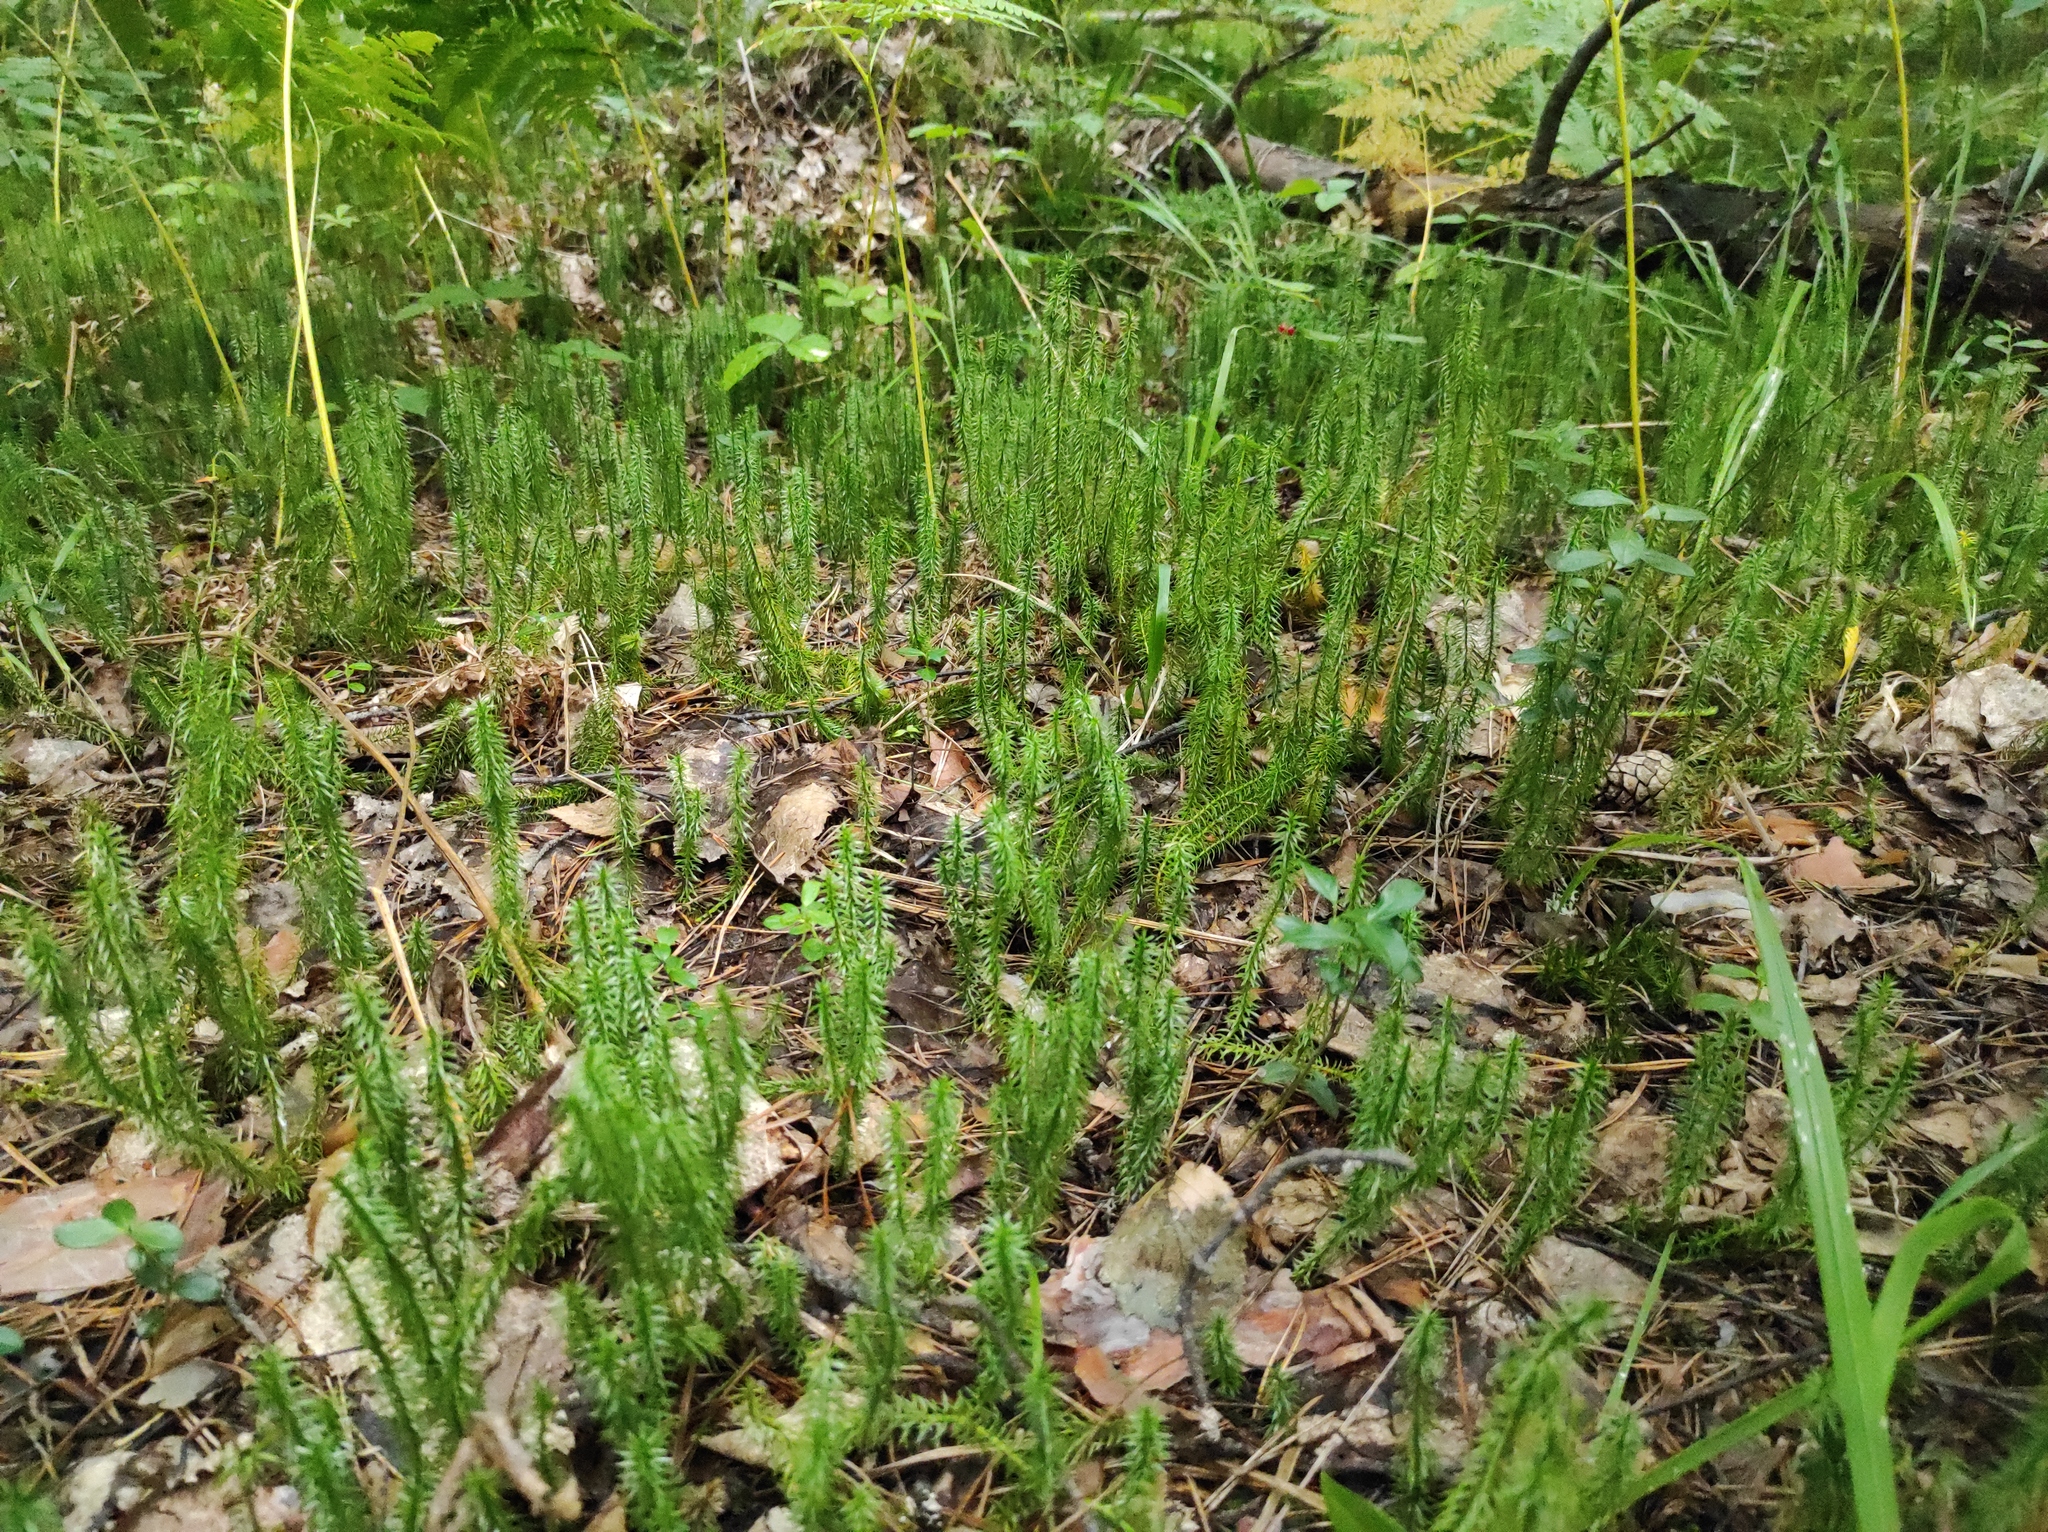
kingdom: Plantae
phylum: Tracheophyta
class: Lycopodiopsida
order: Lycopodiales
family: Lycopodiaceae
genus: Spinulum
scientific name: Spinulum annotinum
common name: Interrupted club-moss
